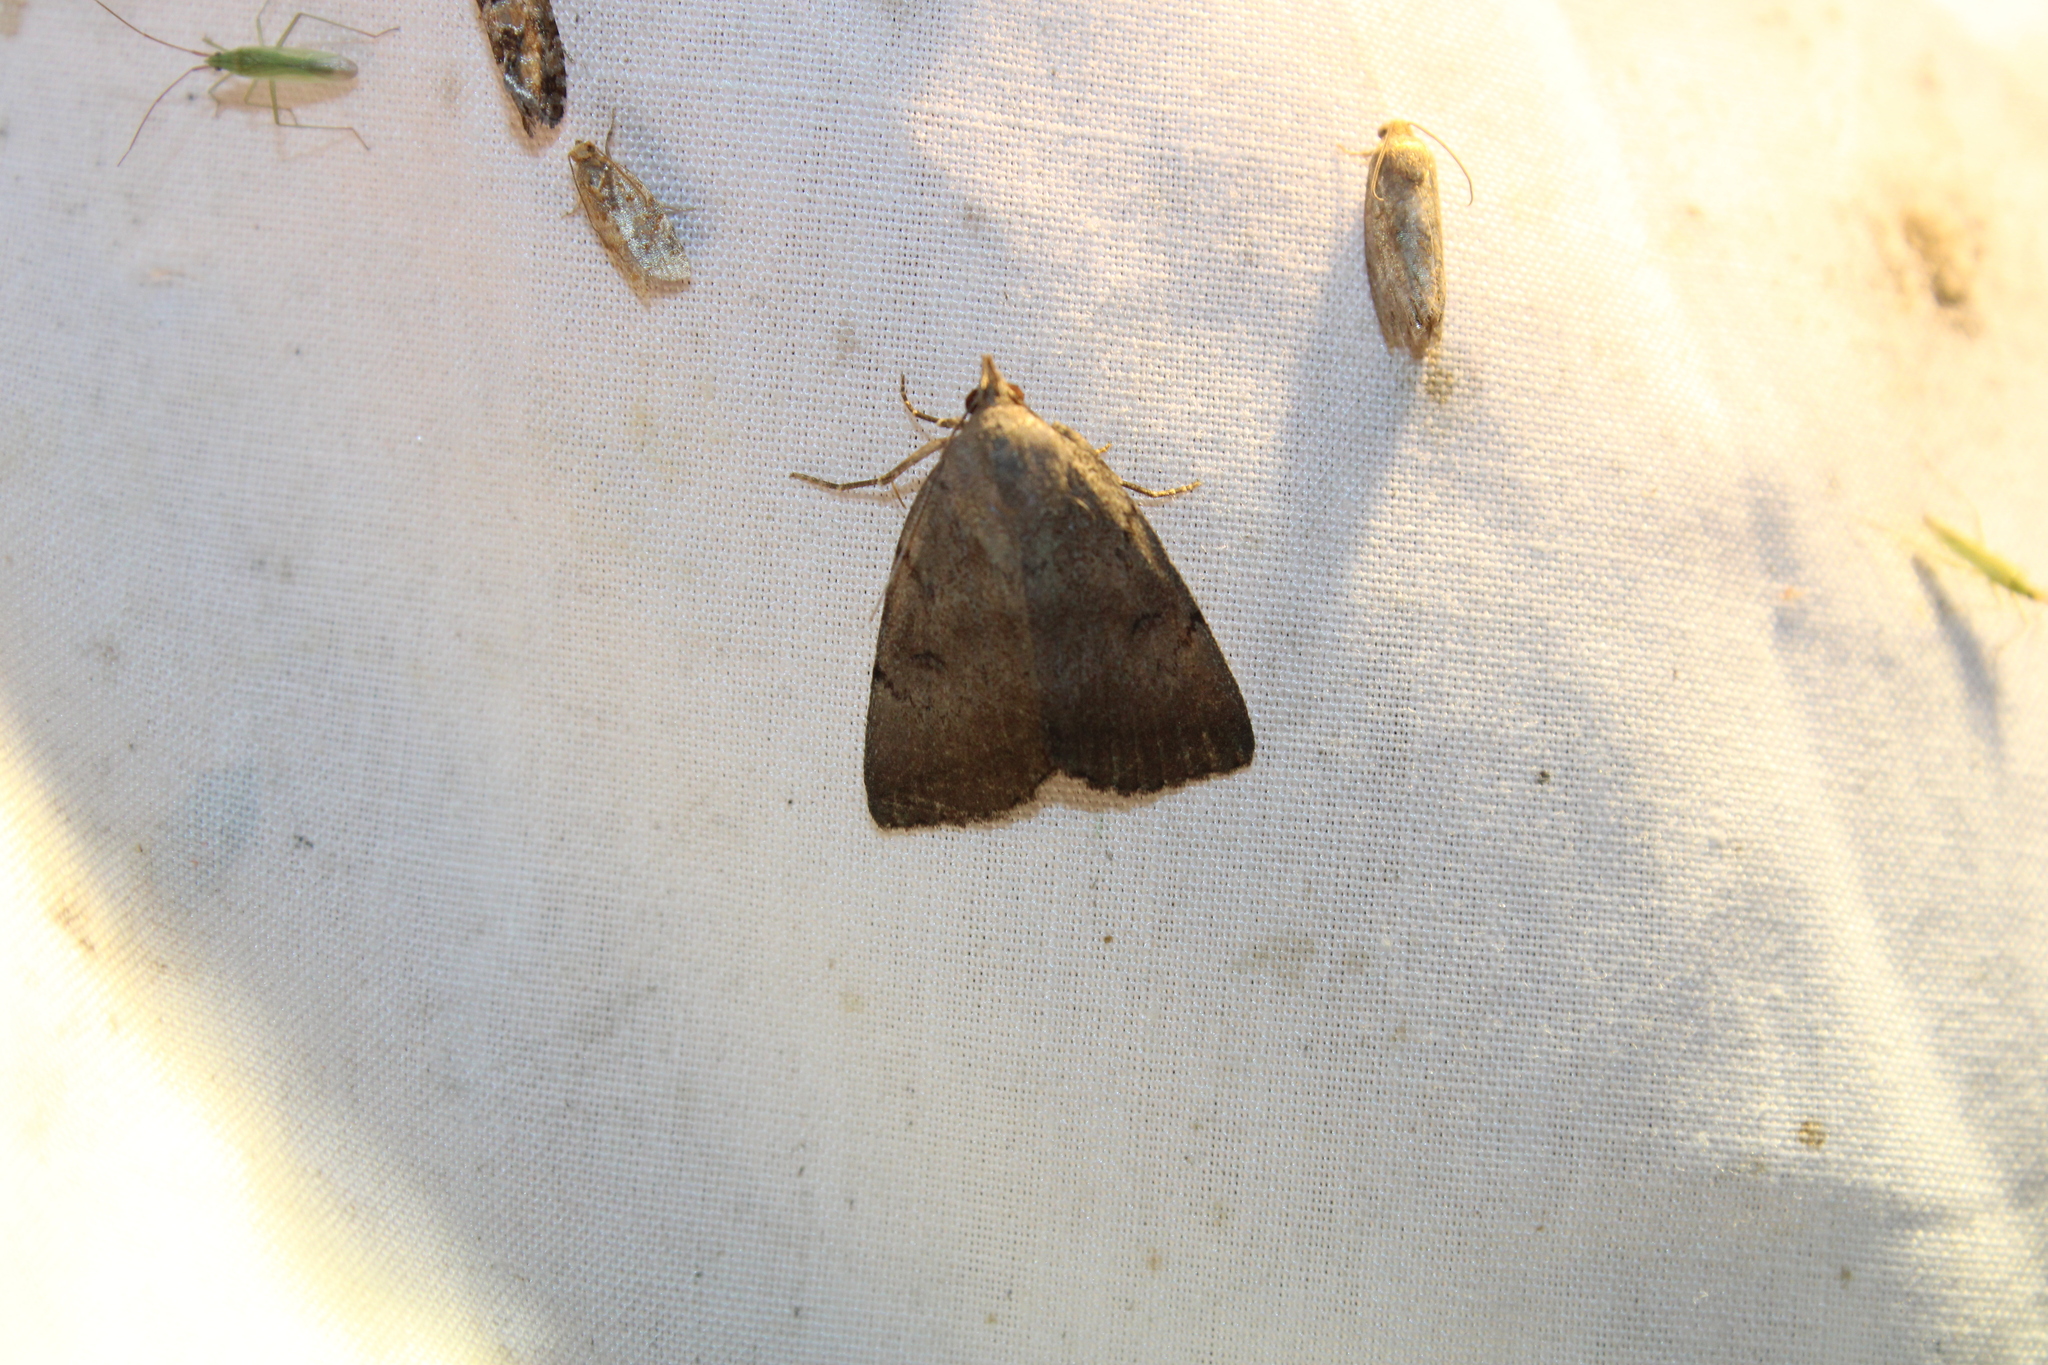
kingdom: Animalia
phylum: Arthropoda
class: Insecta
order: Lepidoptera
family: Erebidae
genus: Zanclognatha
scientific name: Zanclognatha martha
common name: Pine barrens zanclognatha
